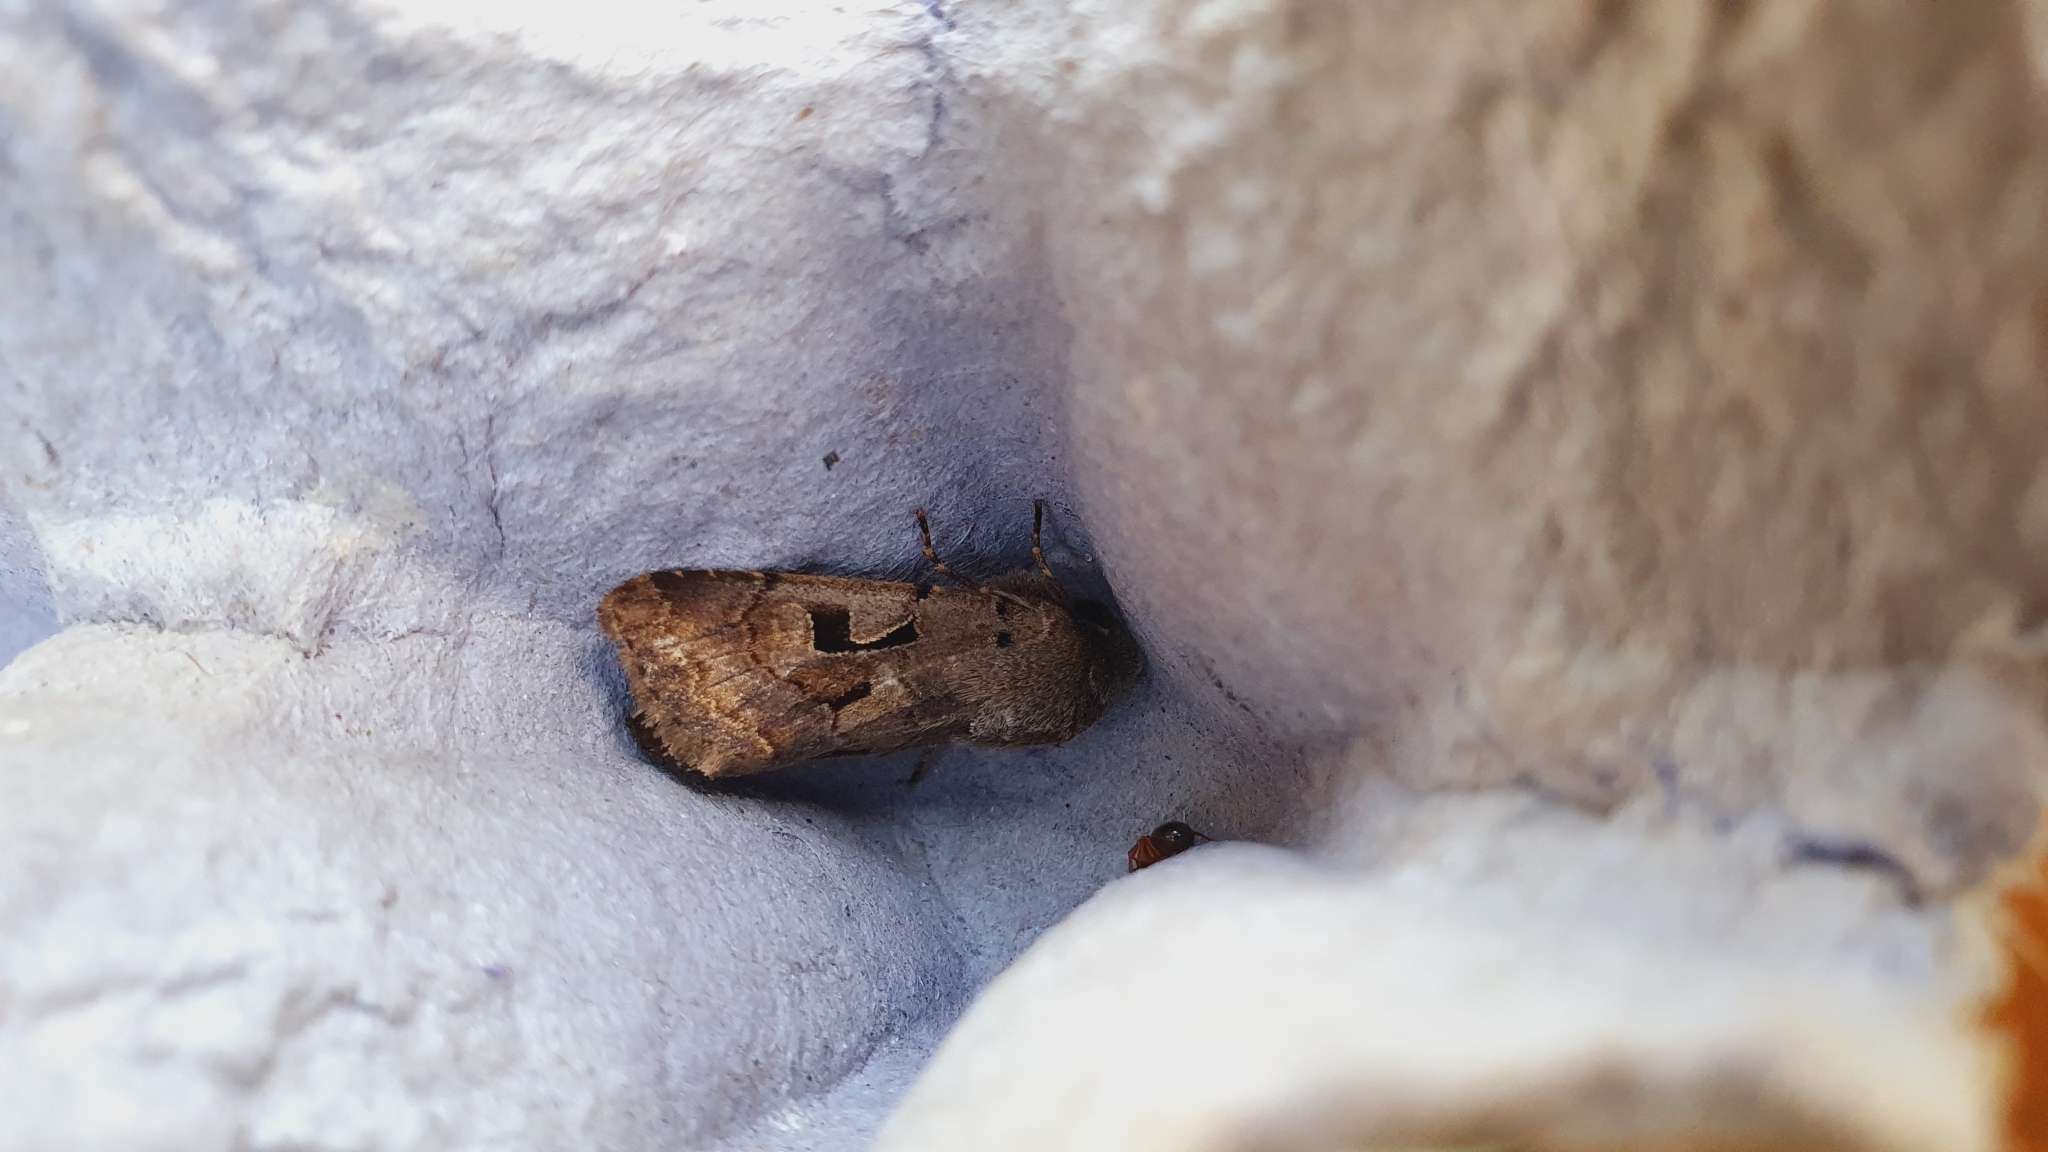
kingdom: Animalia
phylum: Arthropoda
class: Insecta
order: Lepidoptera
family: Noctuidae
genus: Orthosia
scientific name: Orthosia gothica
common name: Hebrew character
